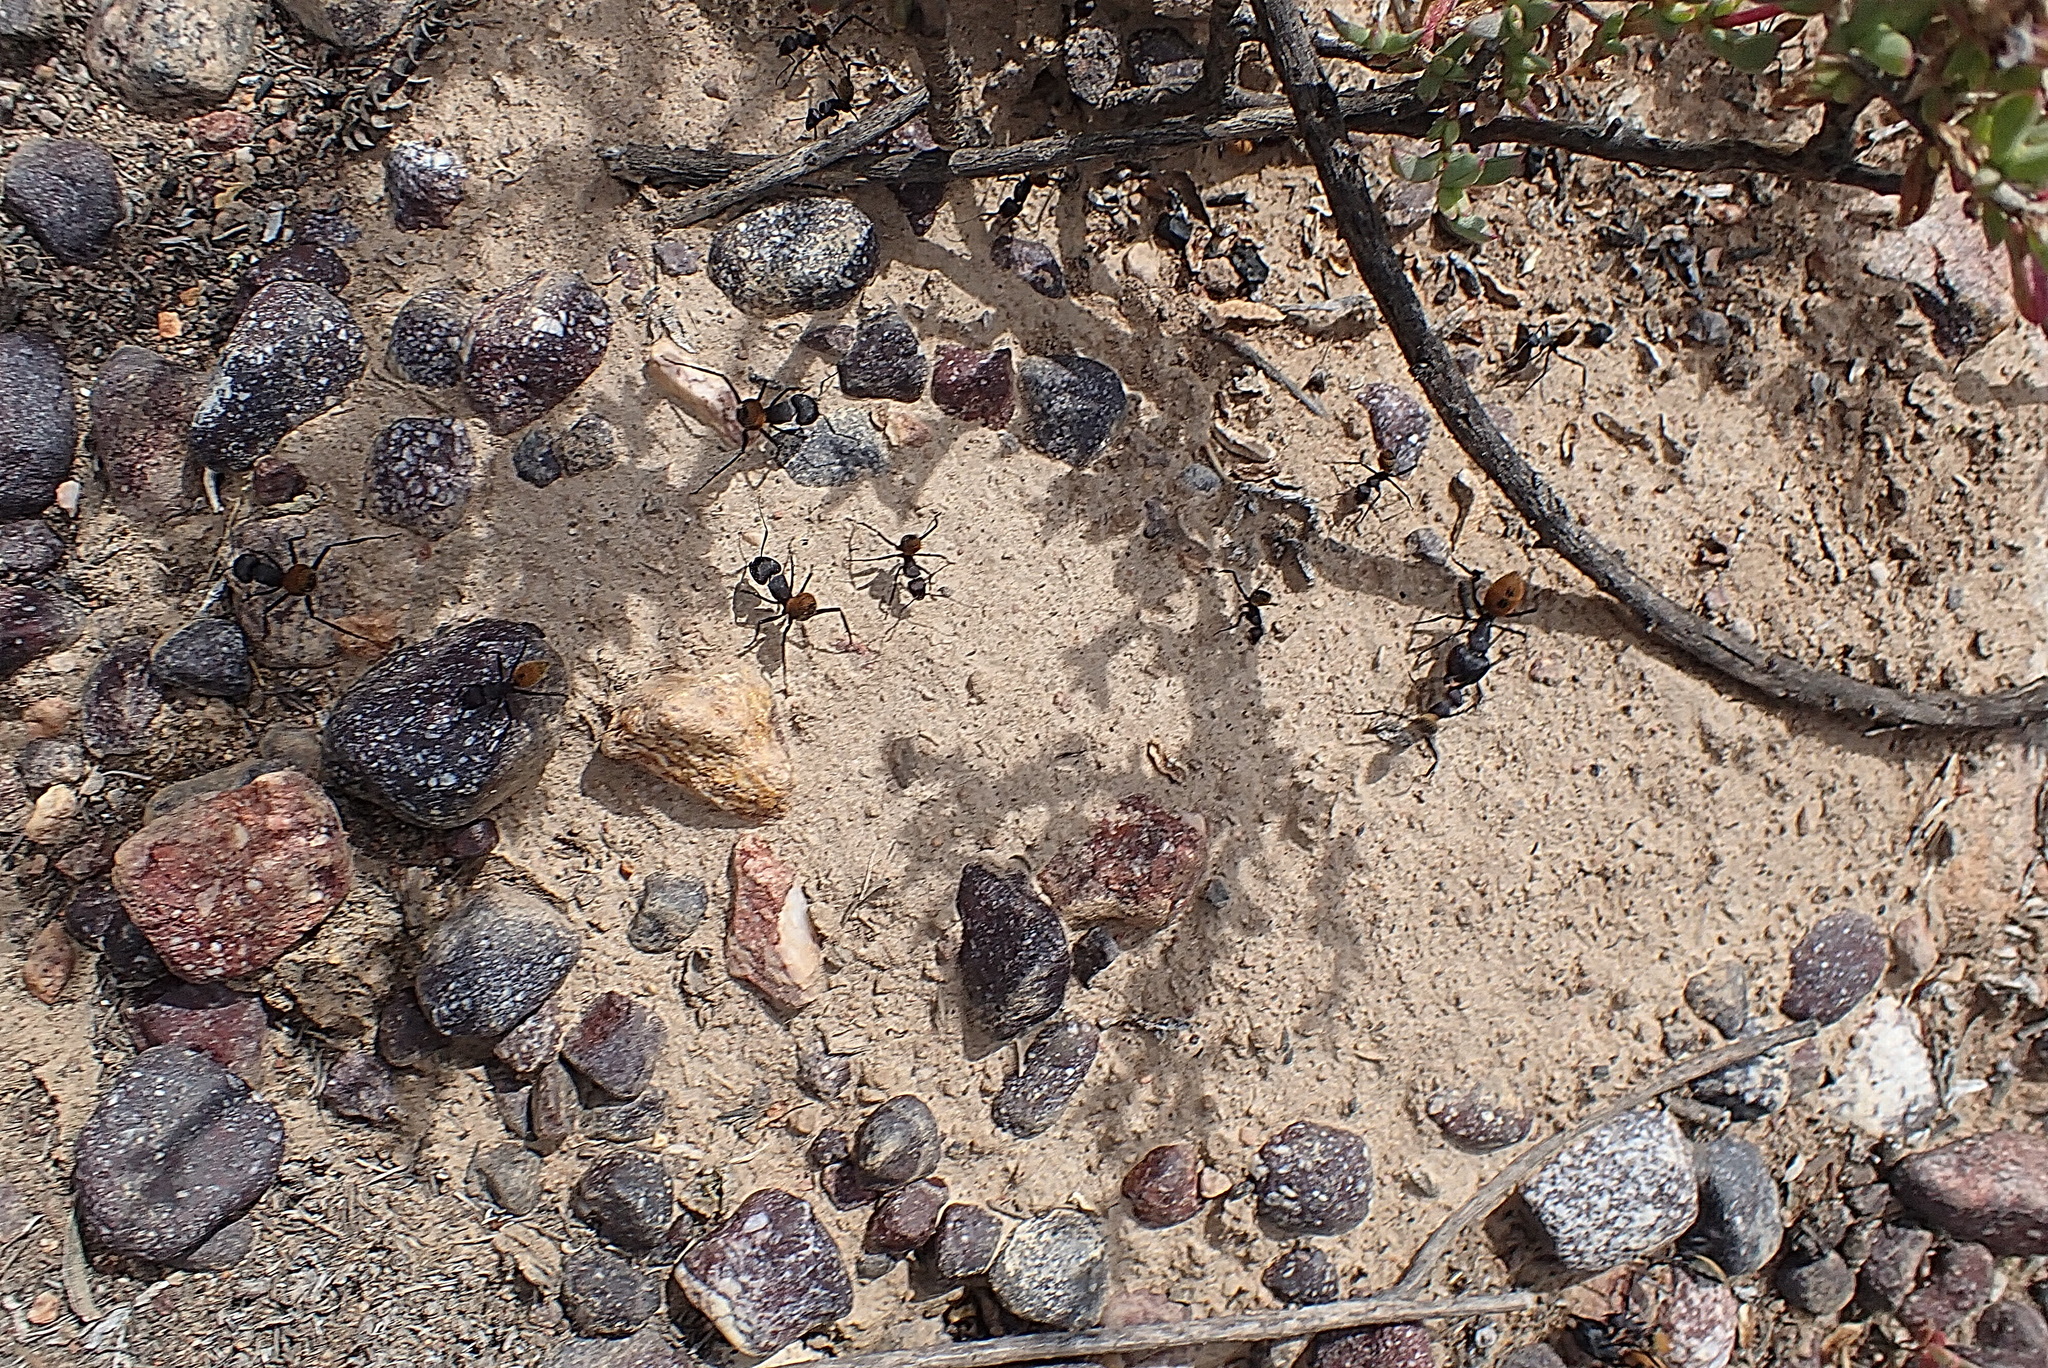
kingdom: Animalia
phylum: Arthropoda
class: Insecta
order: Hymenoptera
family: Formicidae
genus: Camponotus
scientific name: Camponotus fulvopilosus
